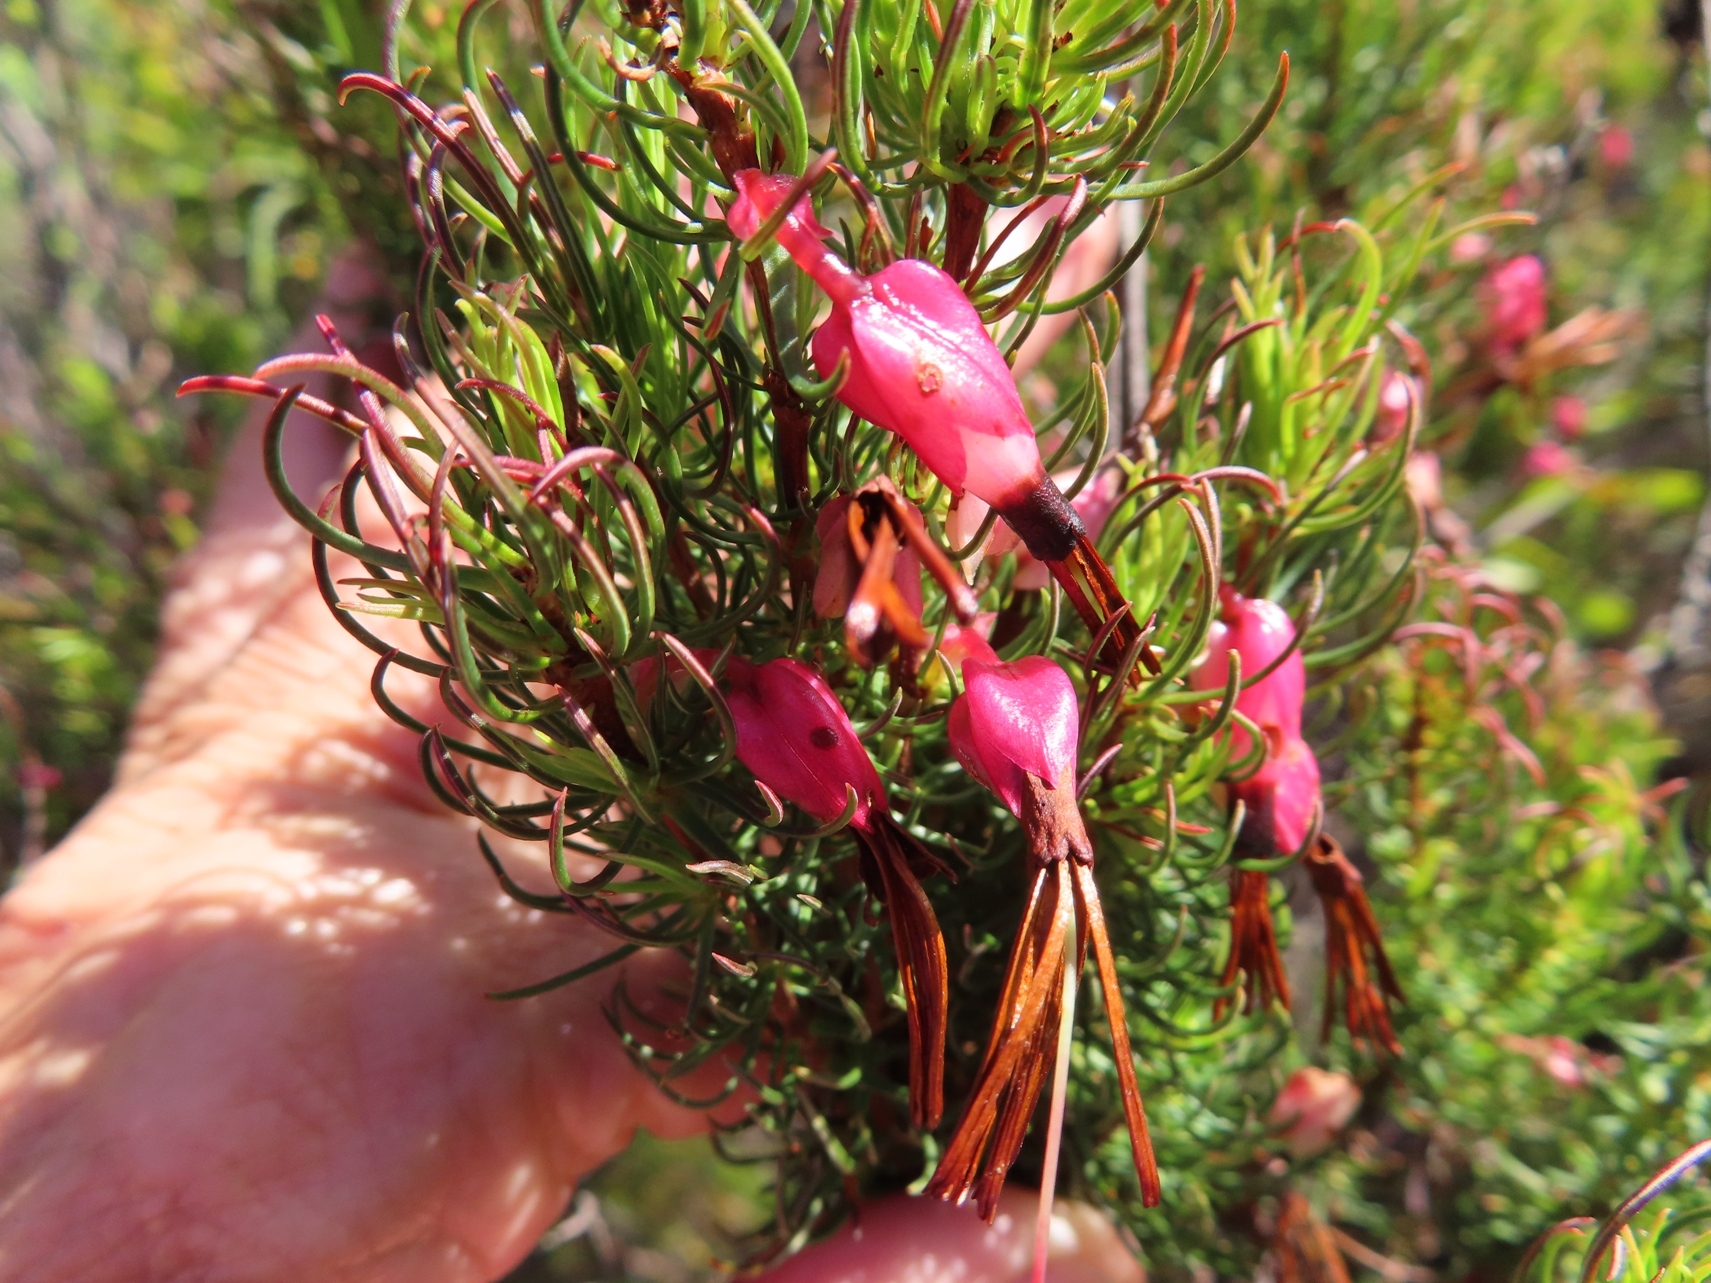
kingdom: Plantae
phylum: Tracheophyta
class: Magnoliopsida
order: Ericales
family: Ericaceae
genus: Erica
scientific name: Erica plukenetii
